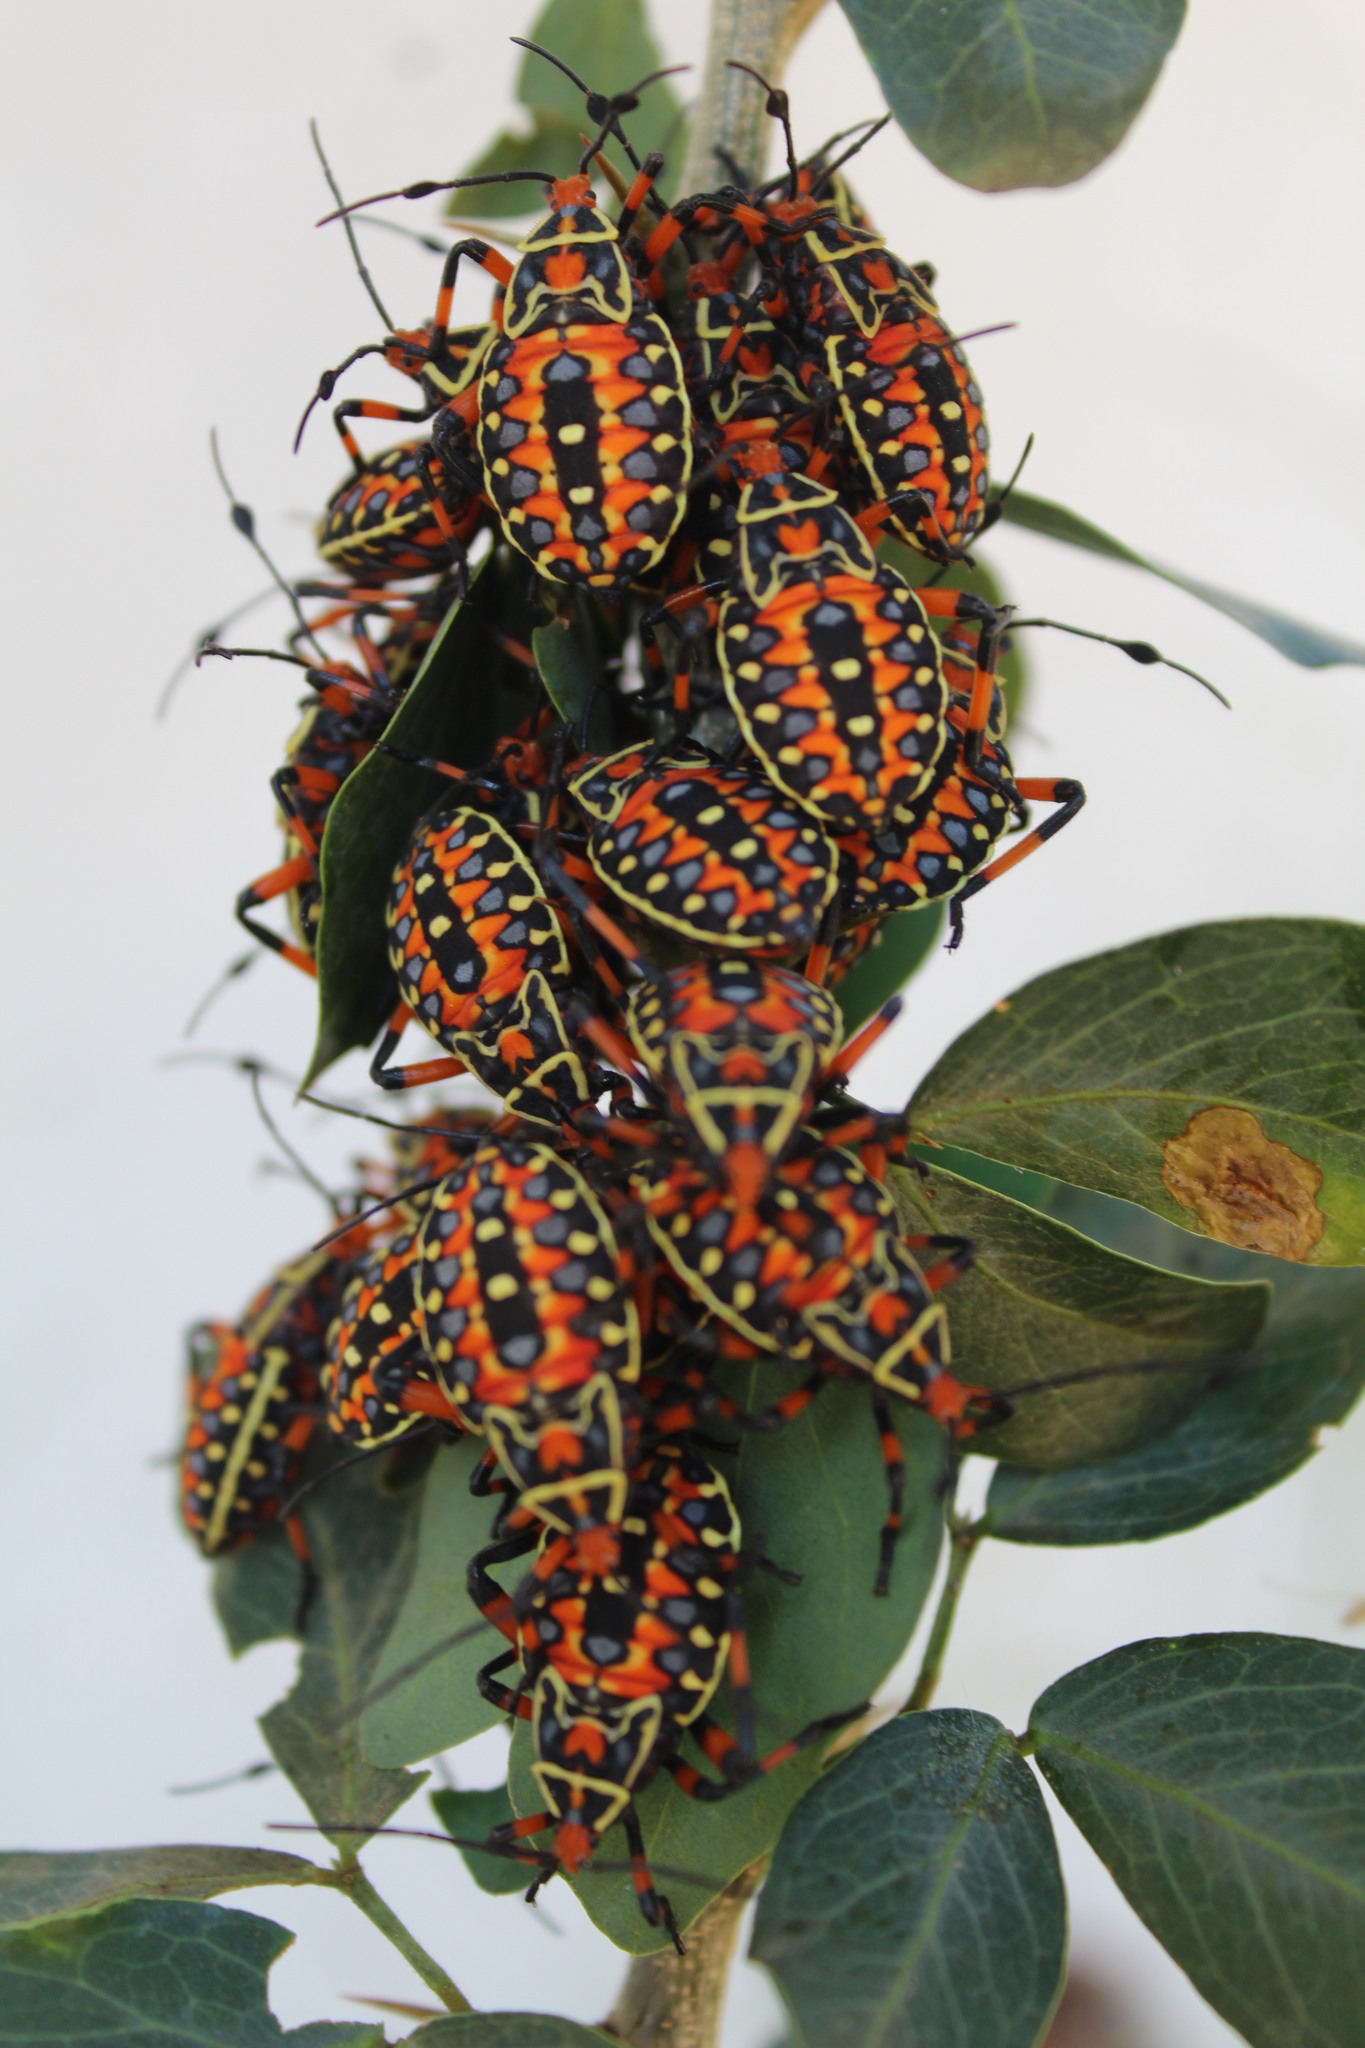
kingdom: Animalia
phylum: Arthropoda
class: Insecta
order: Hemiptera
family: Coreidae
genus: Pachylis
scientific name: Pachylis nervosus
